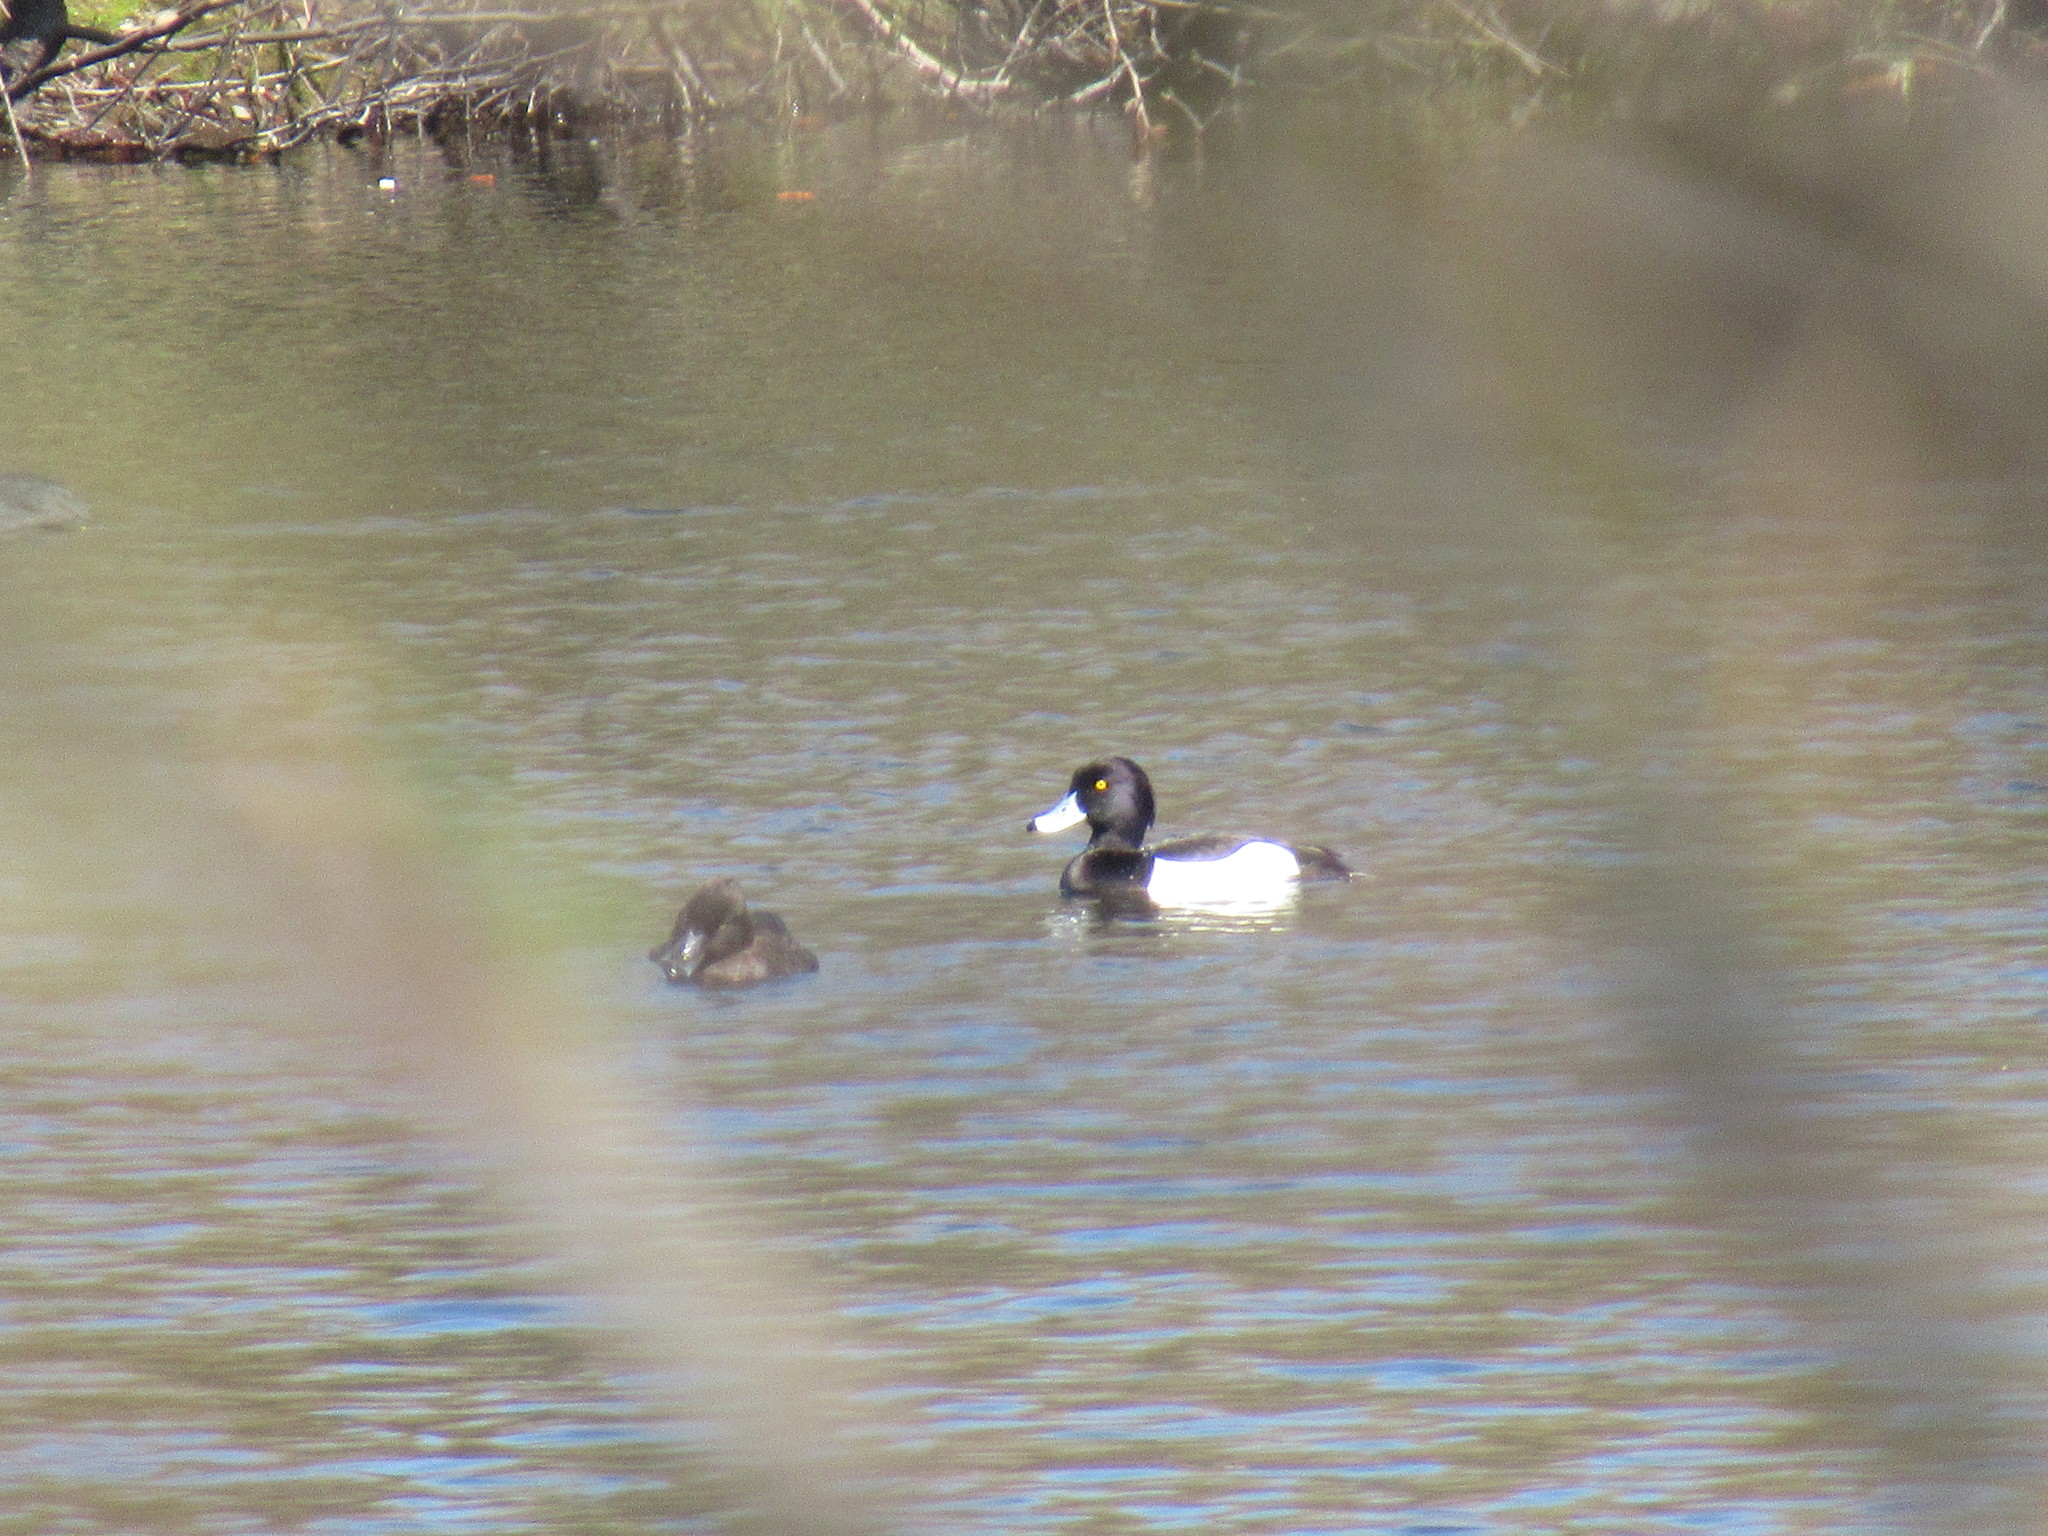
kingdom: Animalia
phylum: Chordata
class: Aves
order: Anseriformes
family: Anatidae
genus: Aythya
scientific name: Aythya fuligula
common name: Tufted duck
